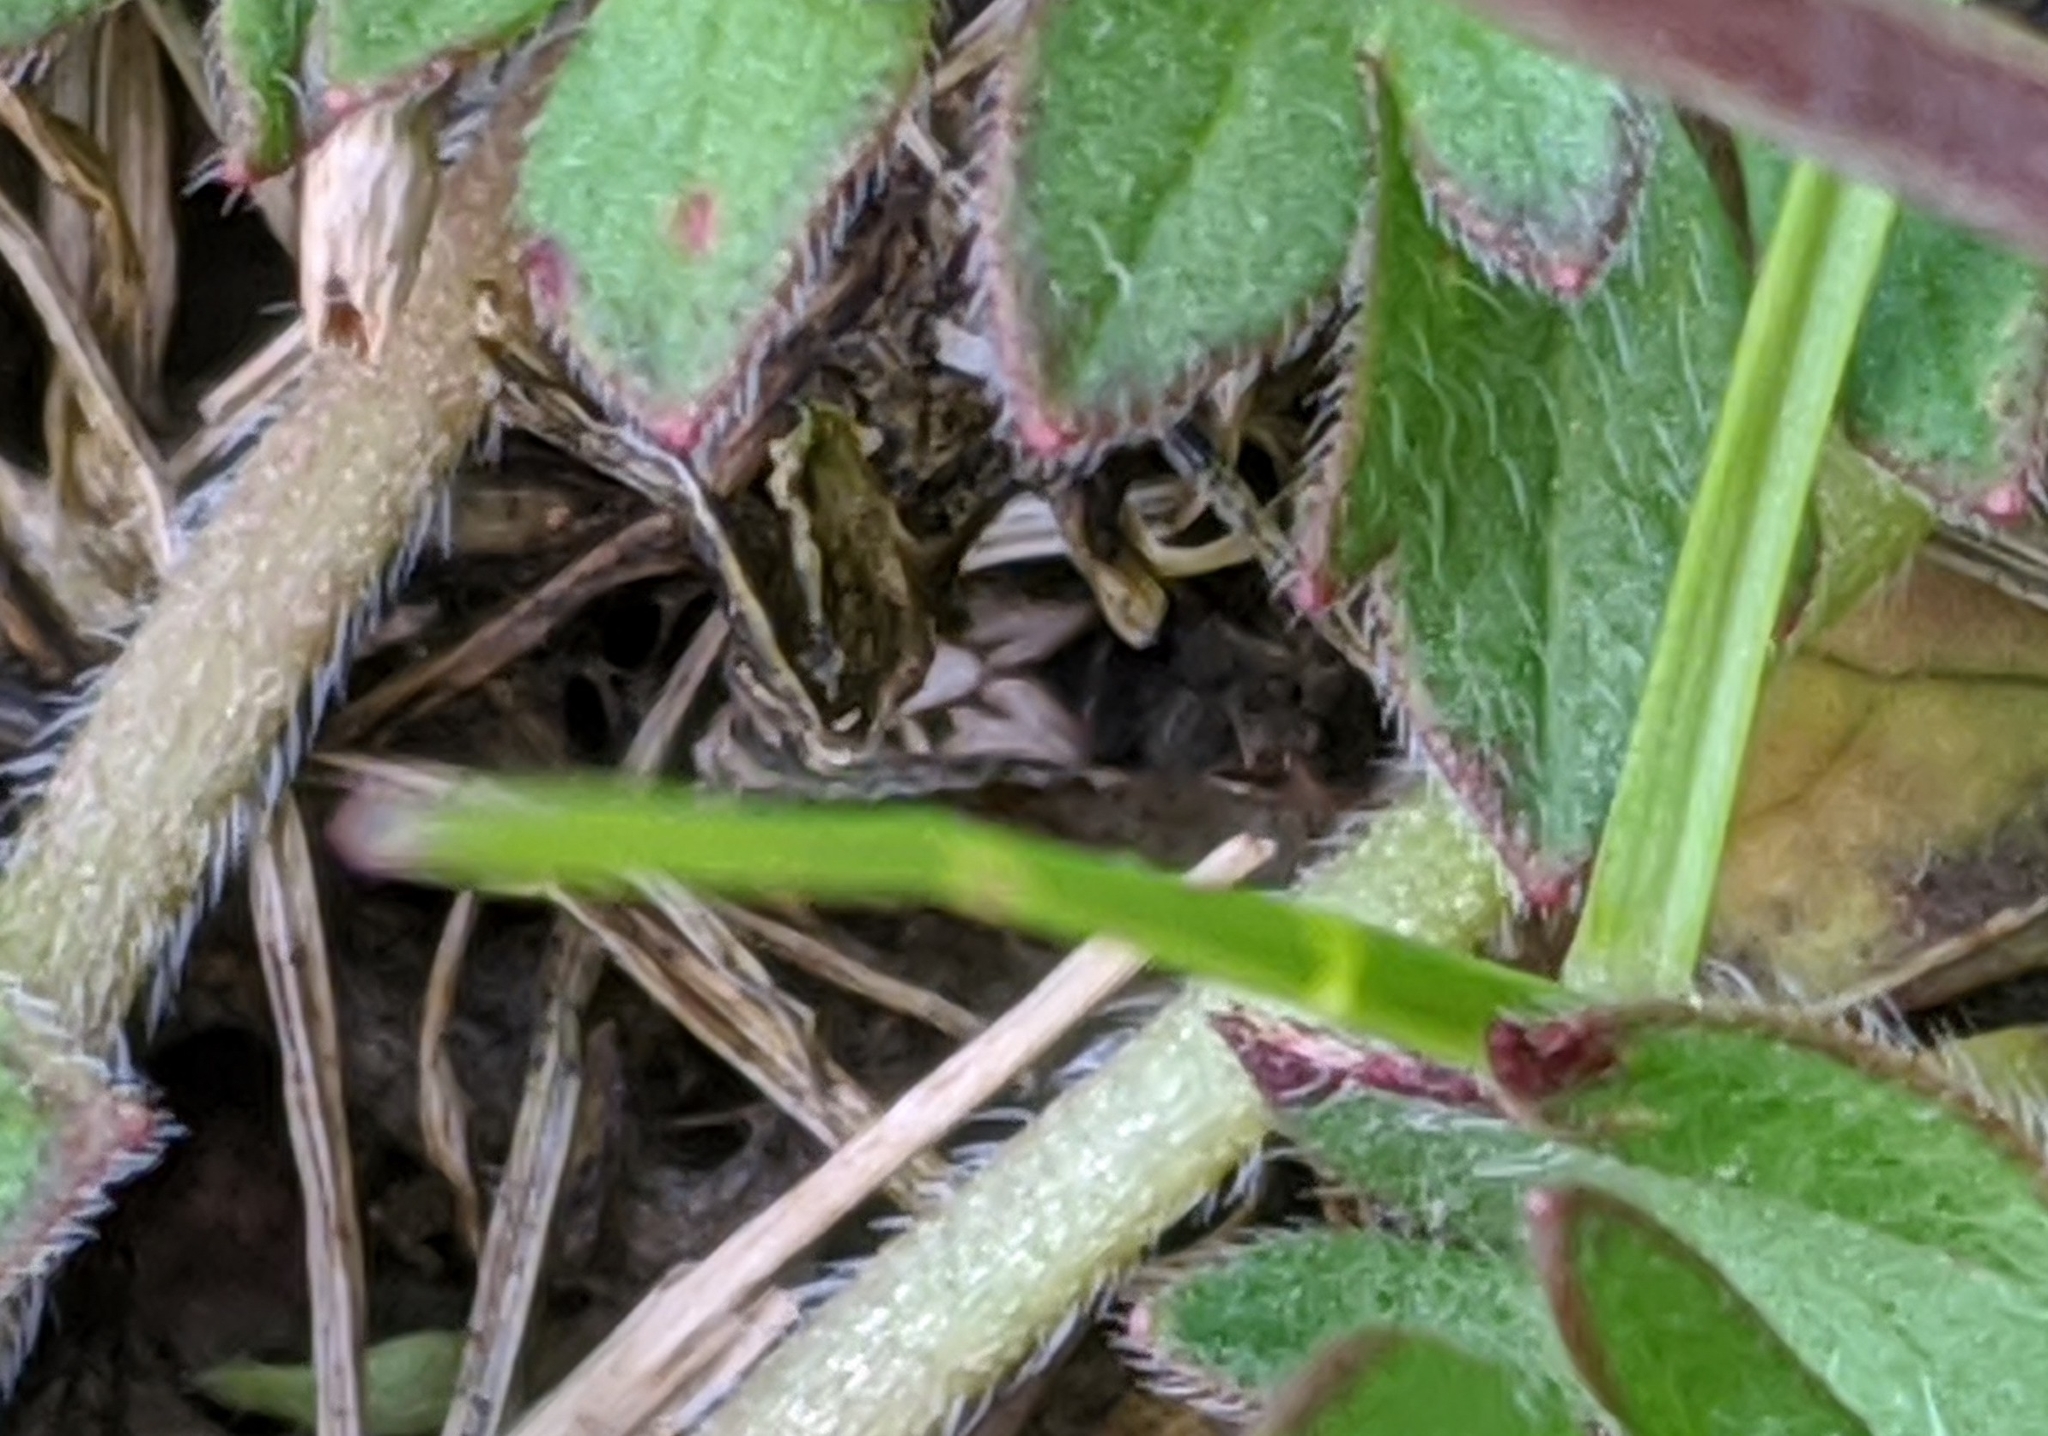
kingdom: Animalia
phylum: Arthropoda
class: Insecta
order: Hemiptera
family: Blissidae
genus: Blissus
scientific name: Blissus leucopterus
